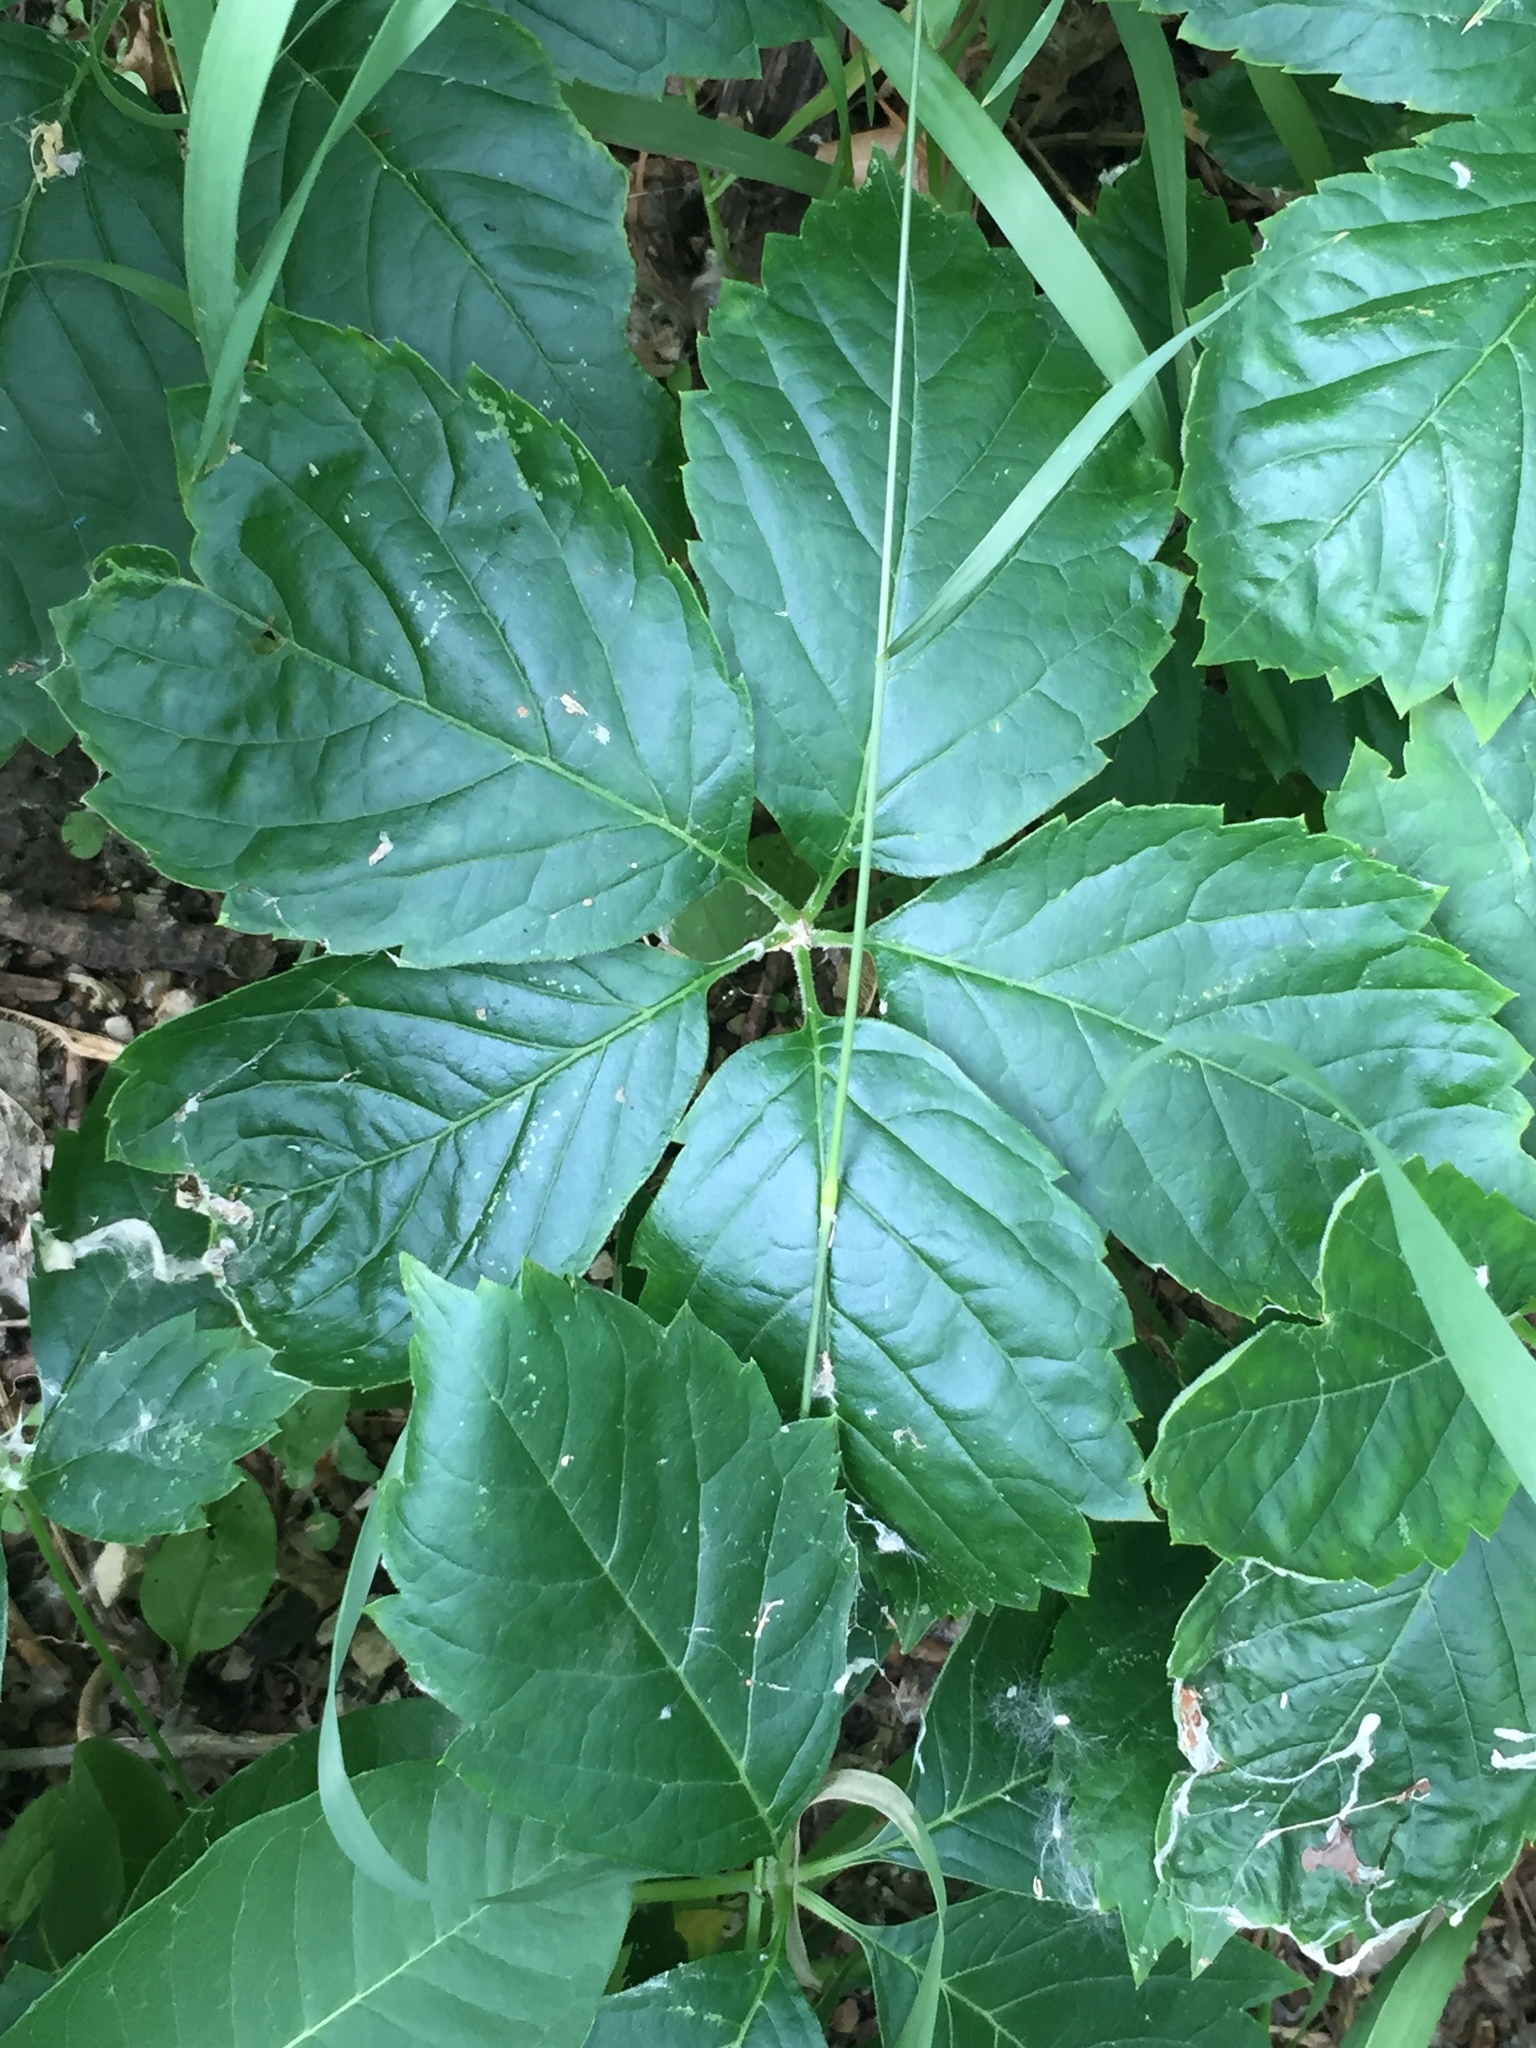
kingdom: Plantae
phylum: Tracheophyta
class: Magnoliopsida
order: Vitales
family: Vitaceae
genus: Parthenocissus
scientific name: Parthenocissus quinquefolia
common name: Virginia-creeper
